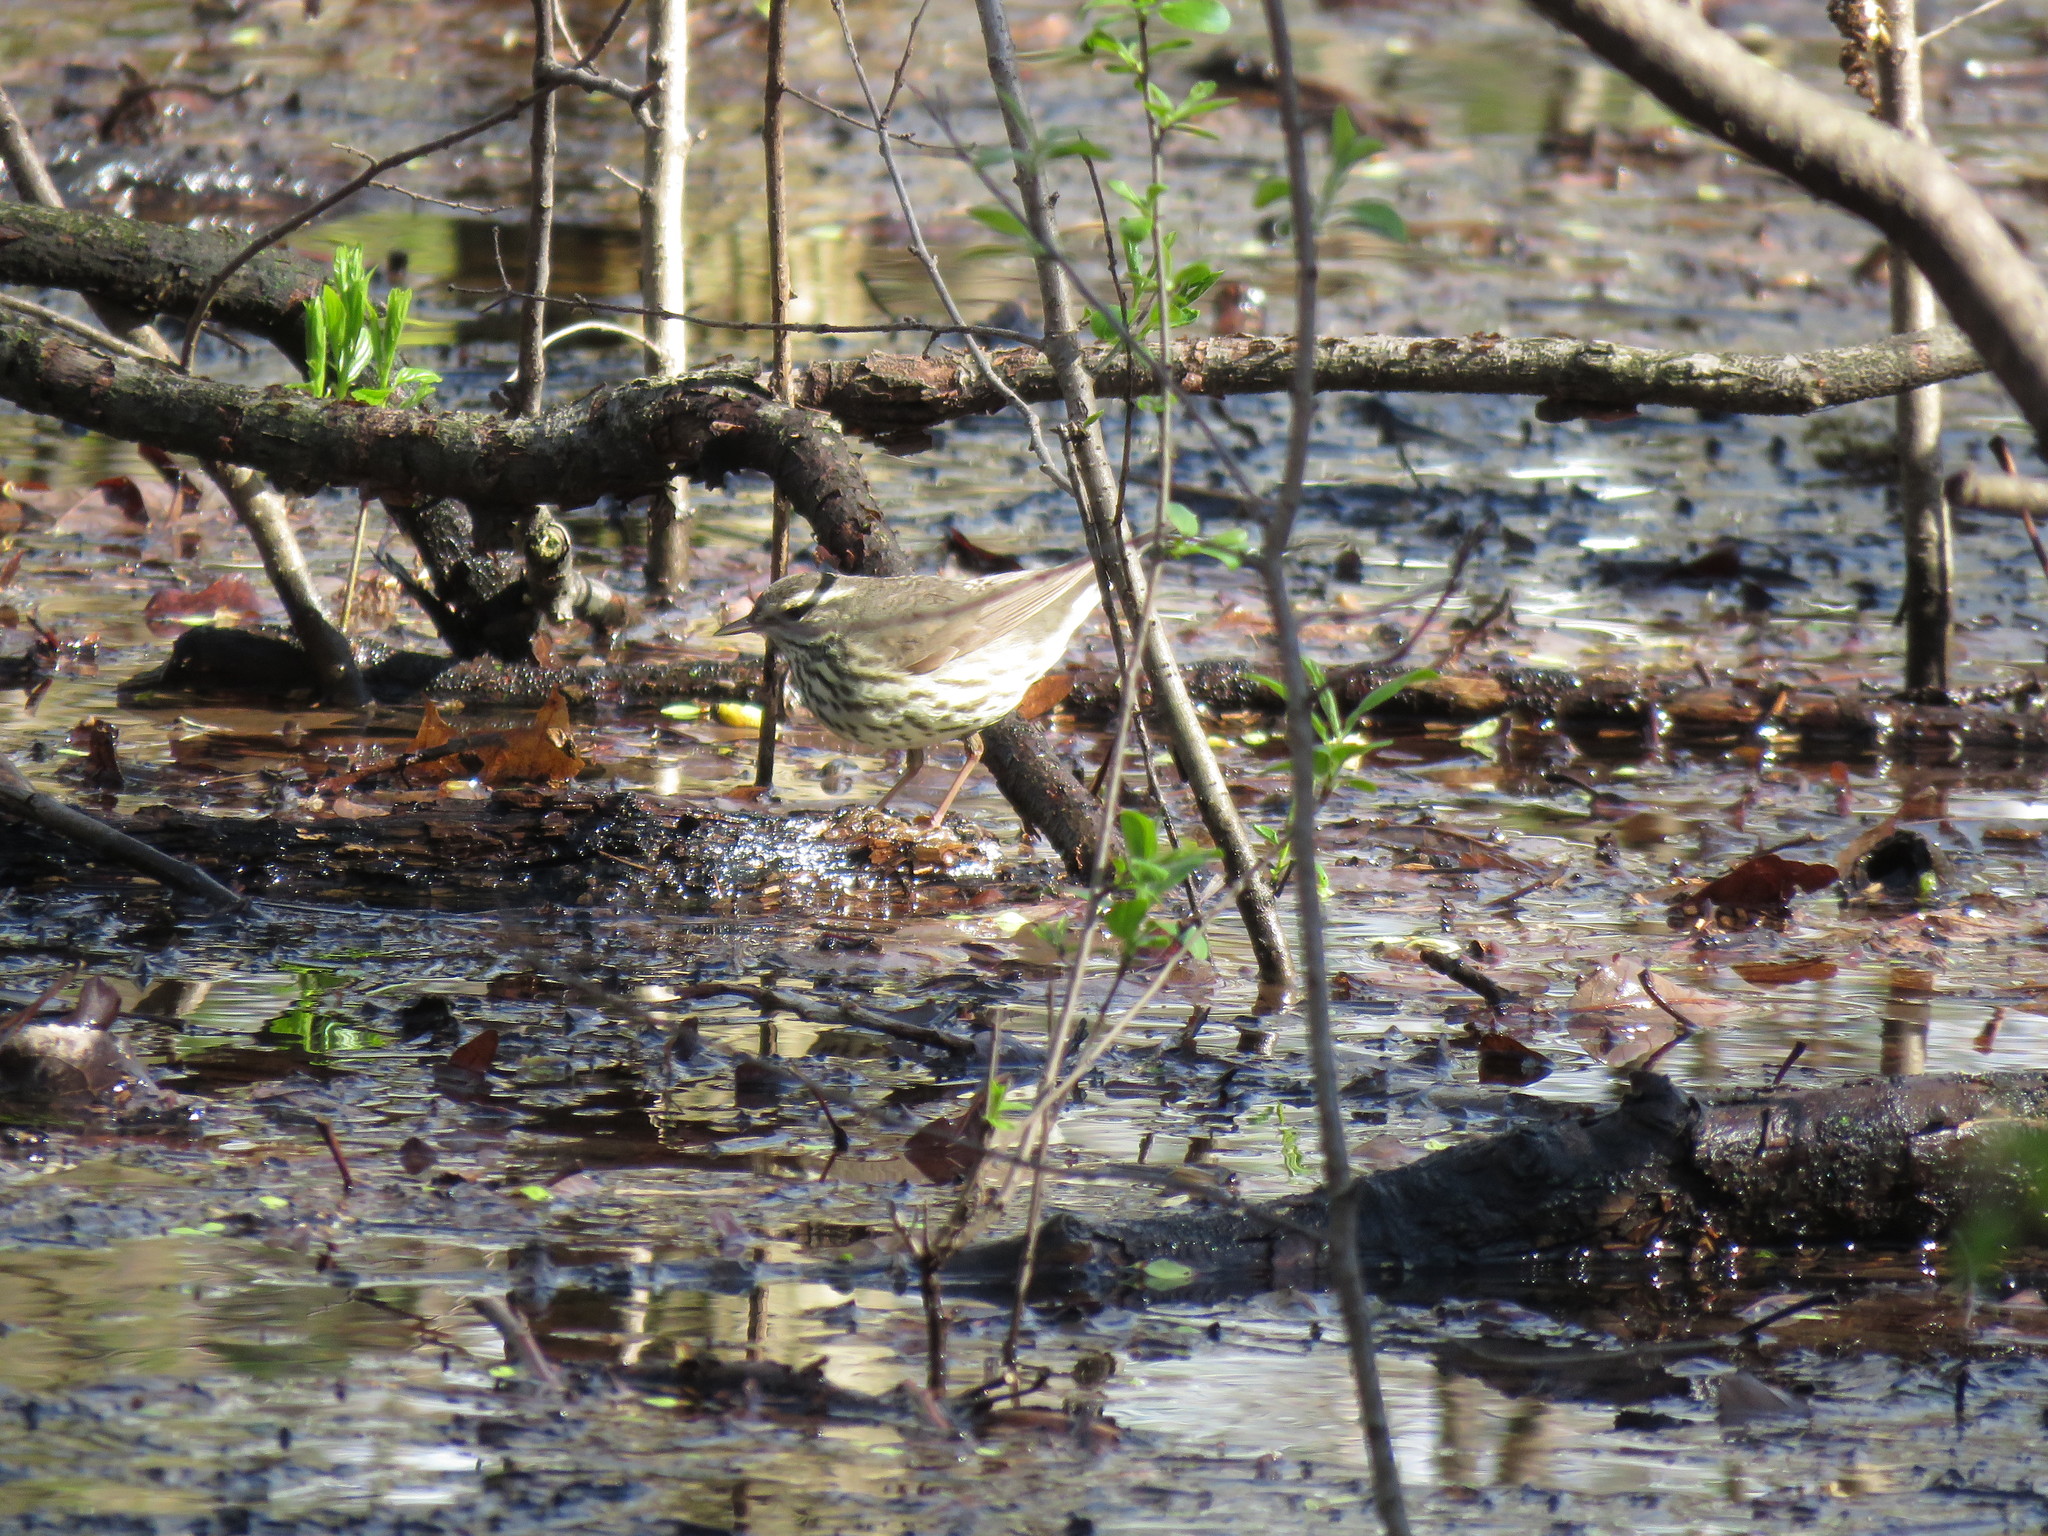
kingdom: Animalia
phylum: Chordata
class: Aves
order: Passeriformes
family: Parulidae
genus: Parkesia
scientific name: Parkesia noveboracensis
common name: Northern waterthrush
